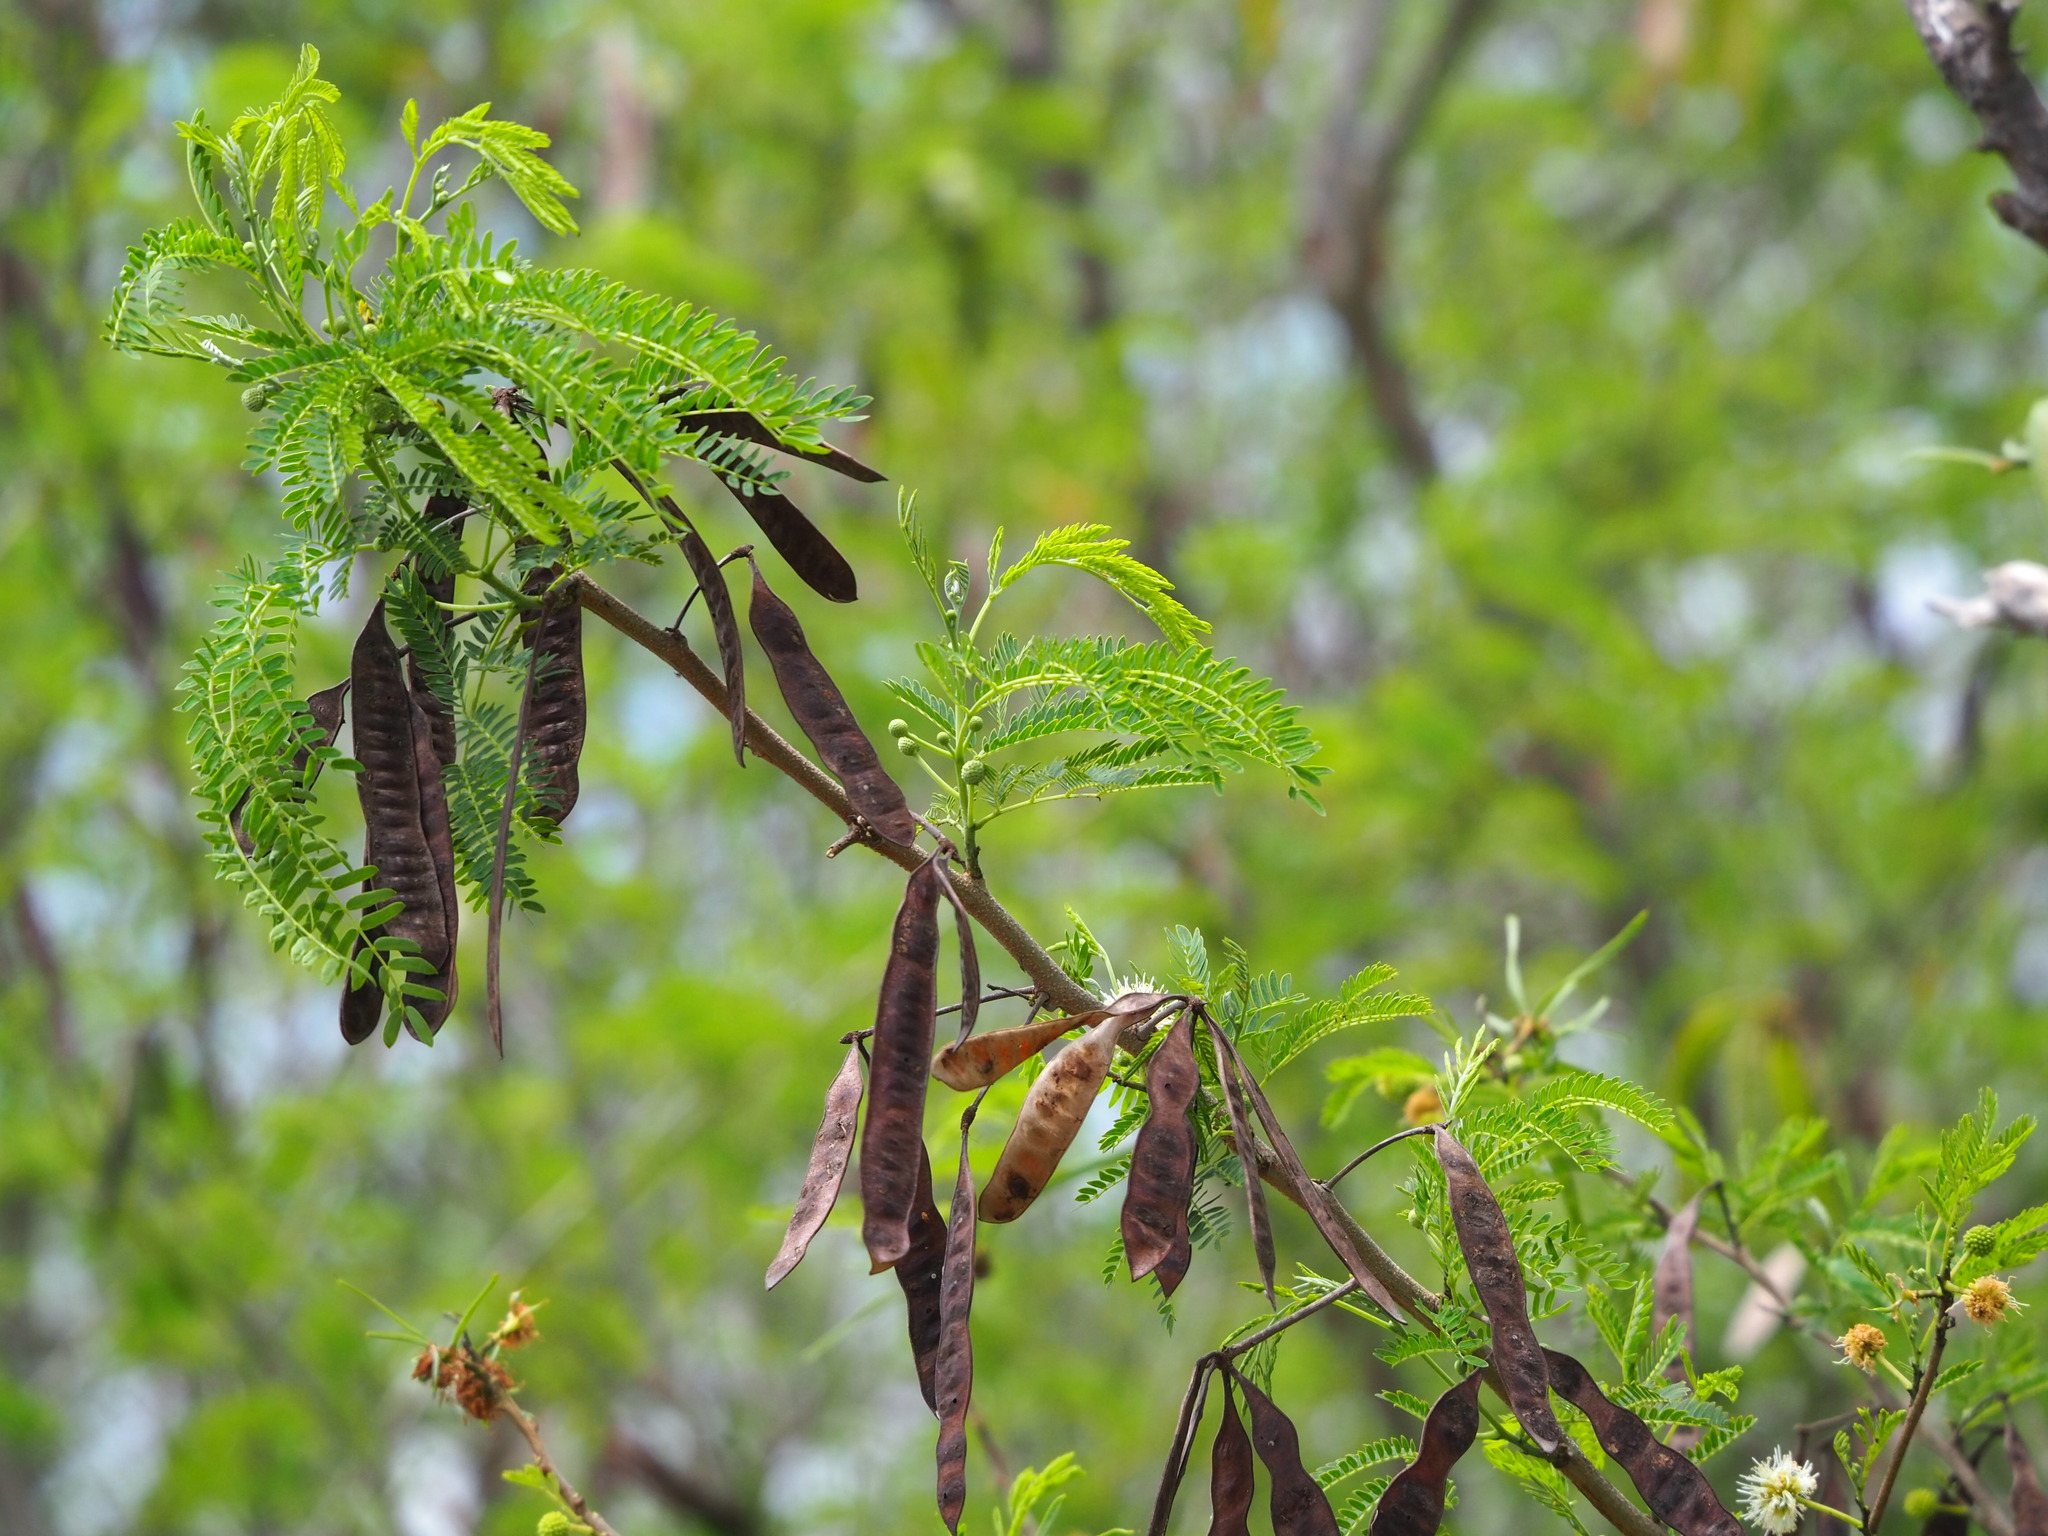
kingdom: Plantae
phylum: Tracheophyta
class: Magnoliopsida
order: Fabales
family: Fabaceae
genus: Leucaena
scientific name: Leucaena leucocephala
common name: White leadtree
